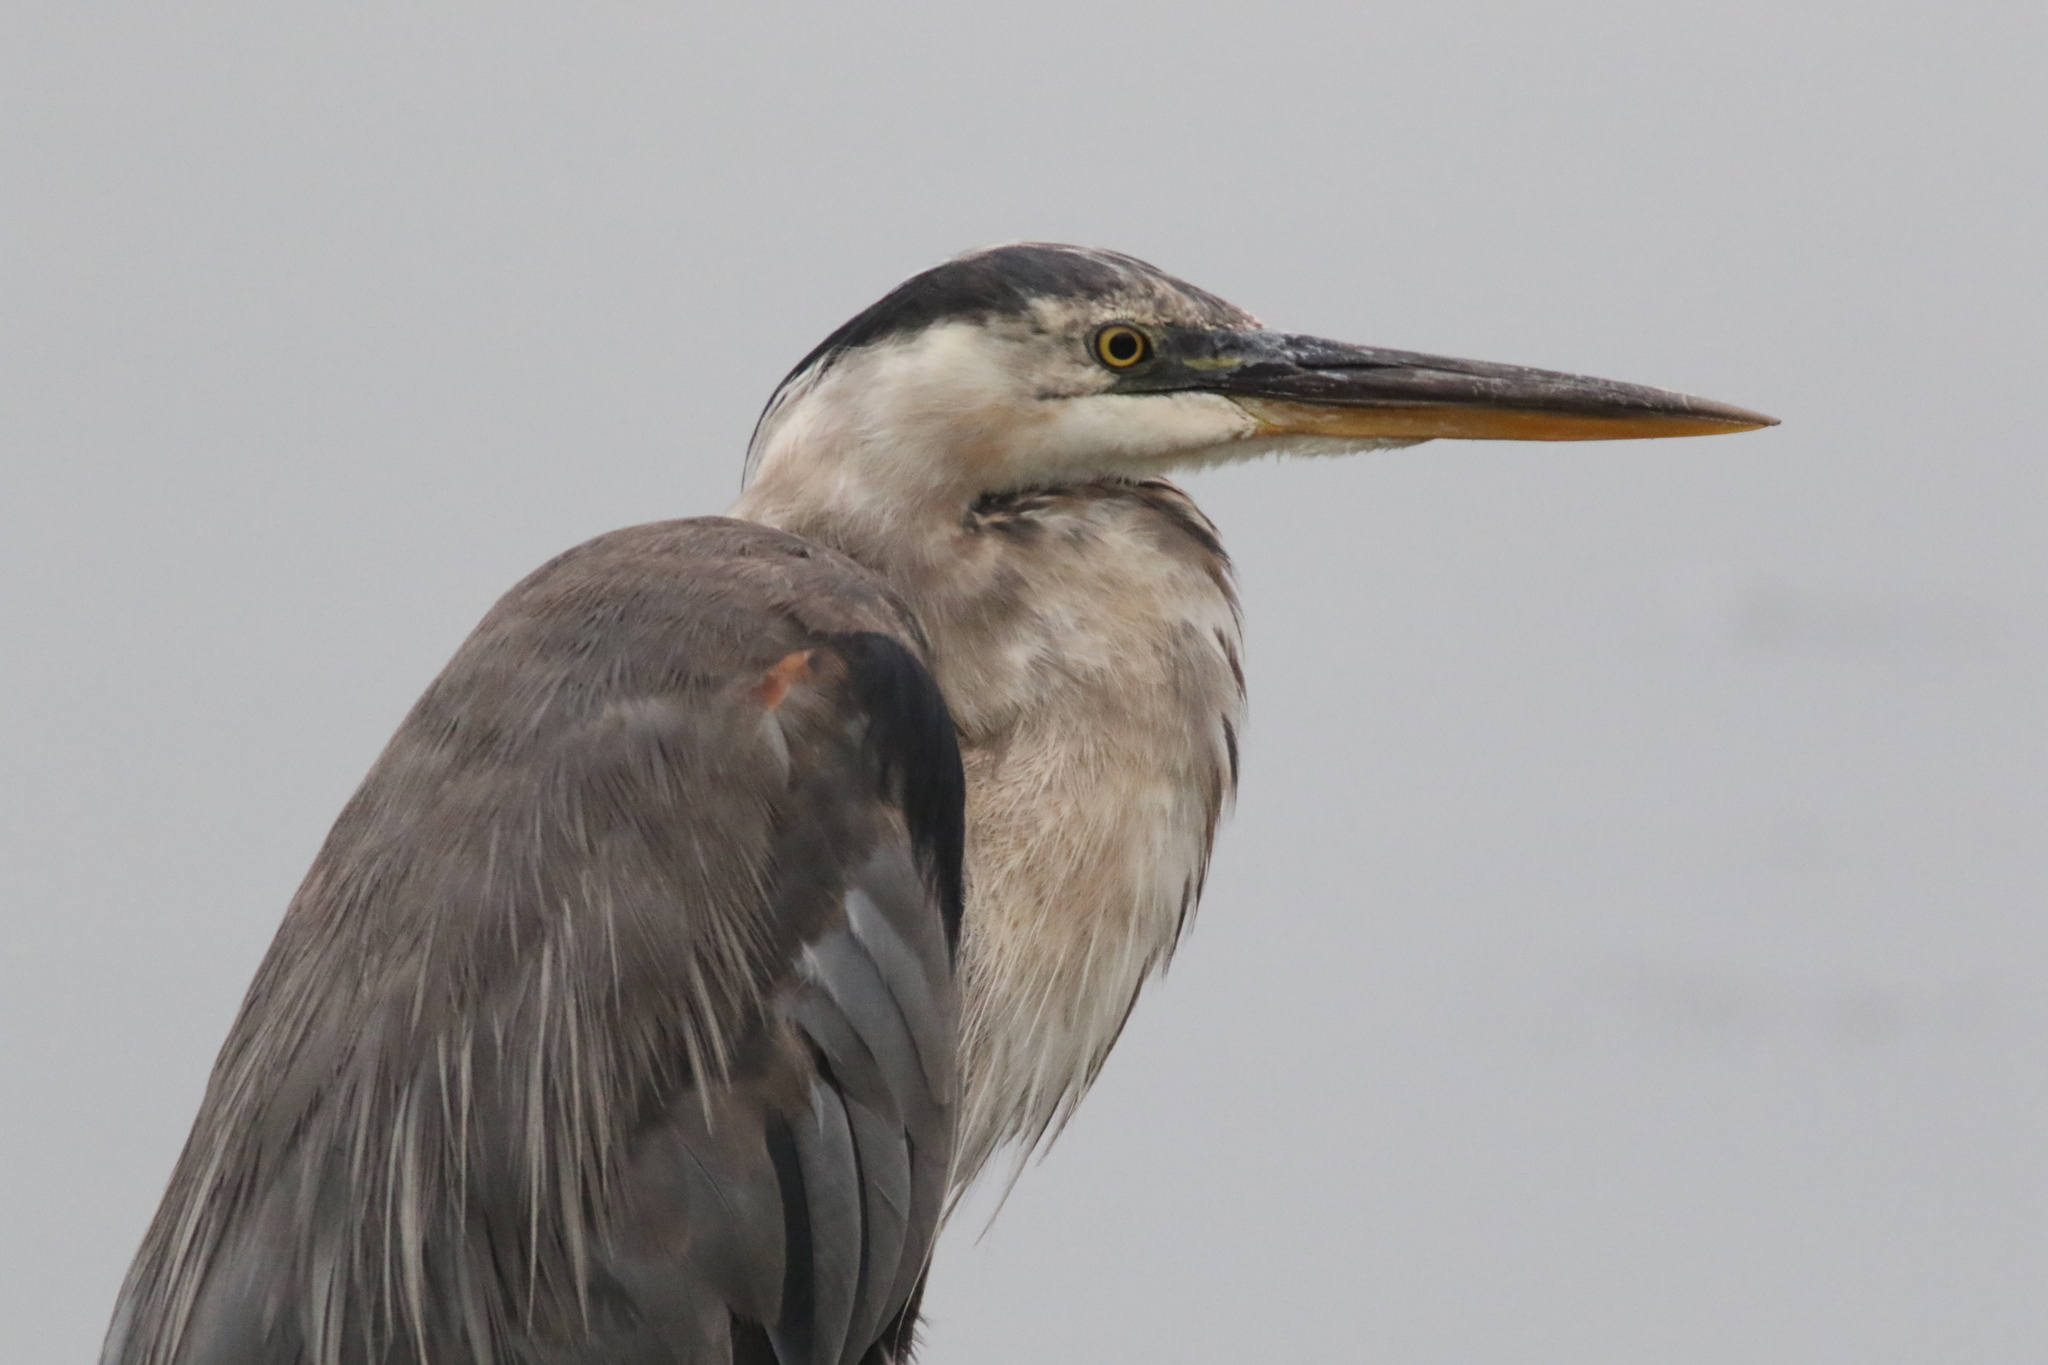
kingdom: Animalia
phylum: Chordata
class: Aves
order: Pelecaniformes
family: Ardeidae
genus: Ardea
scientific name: Ardea herodias
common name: Great blue heron
